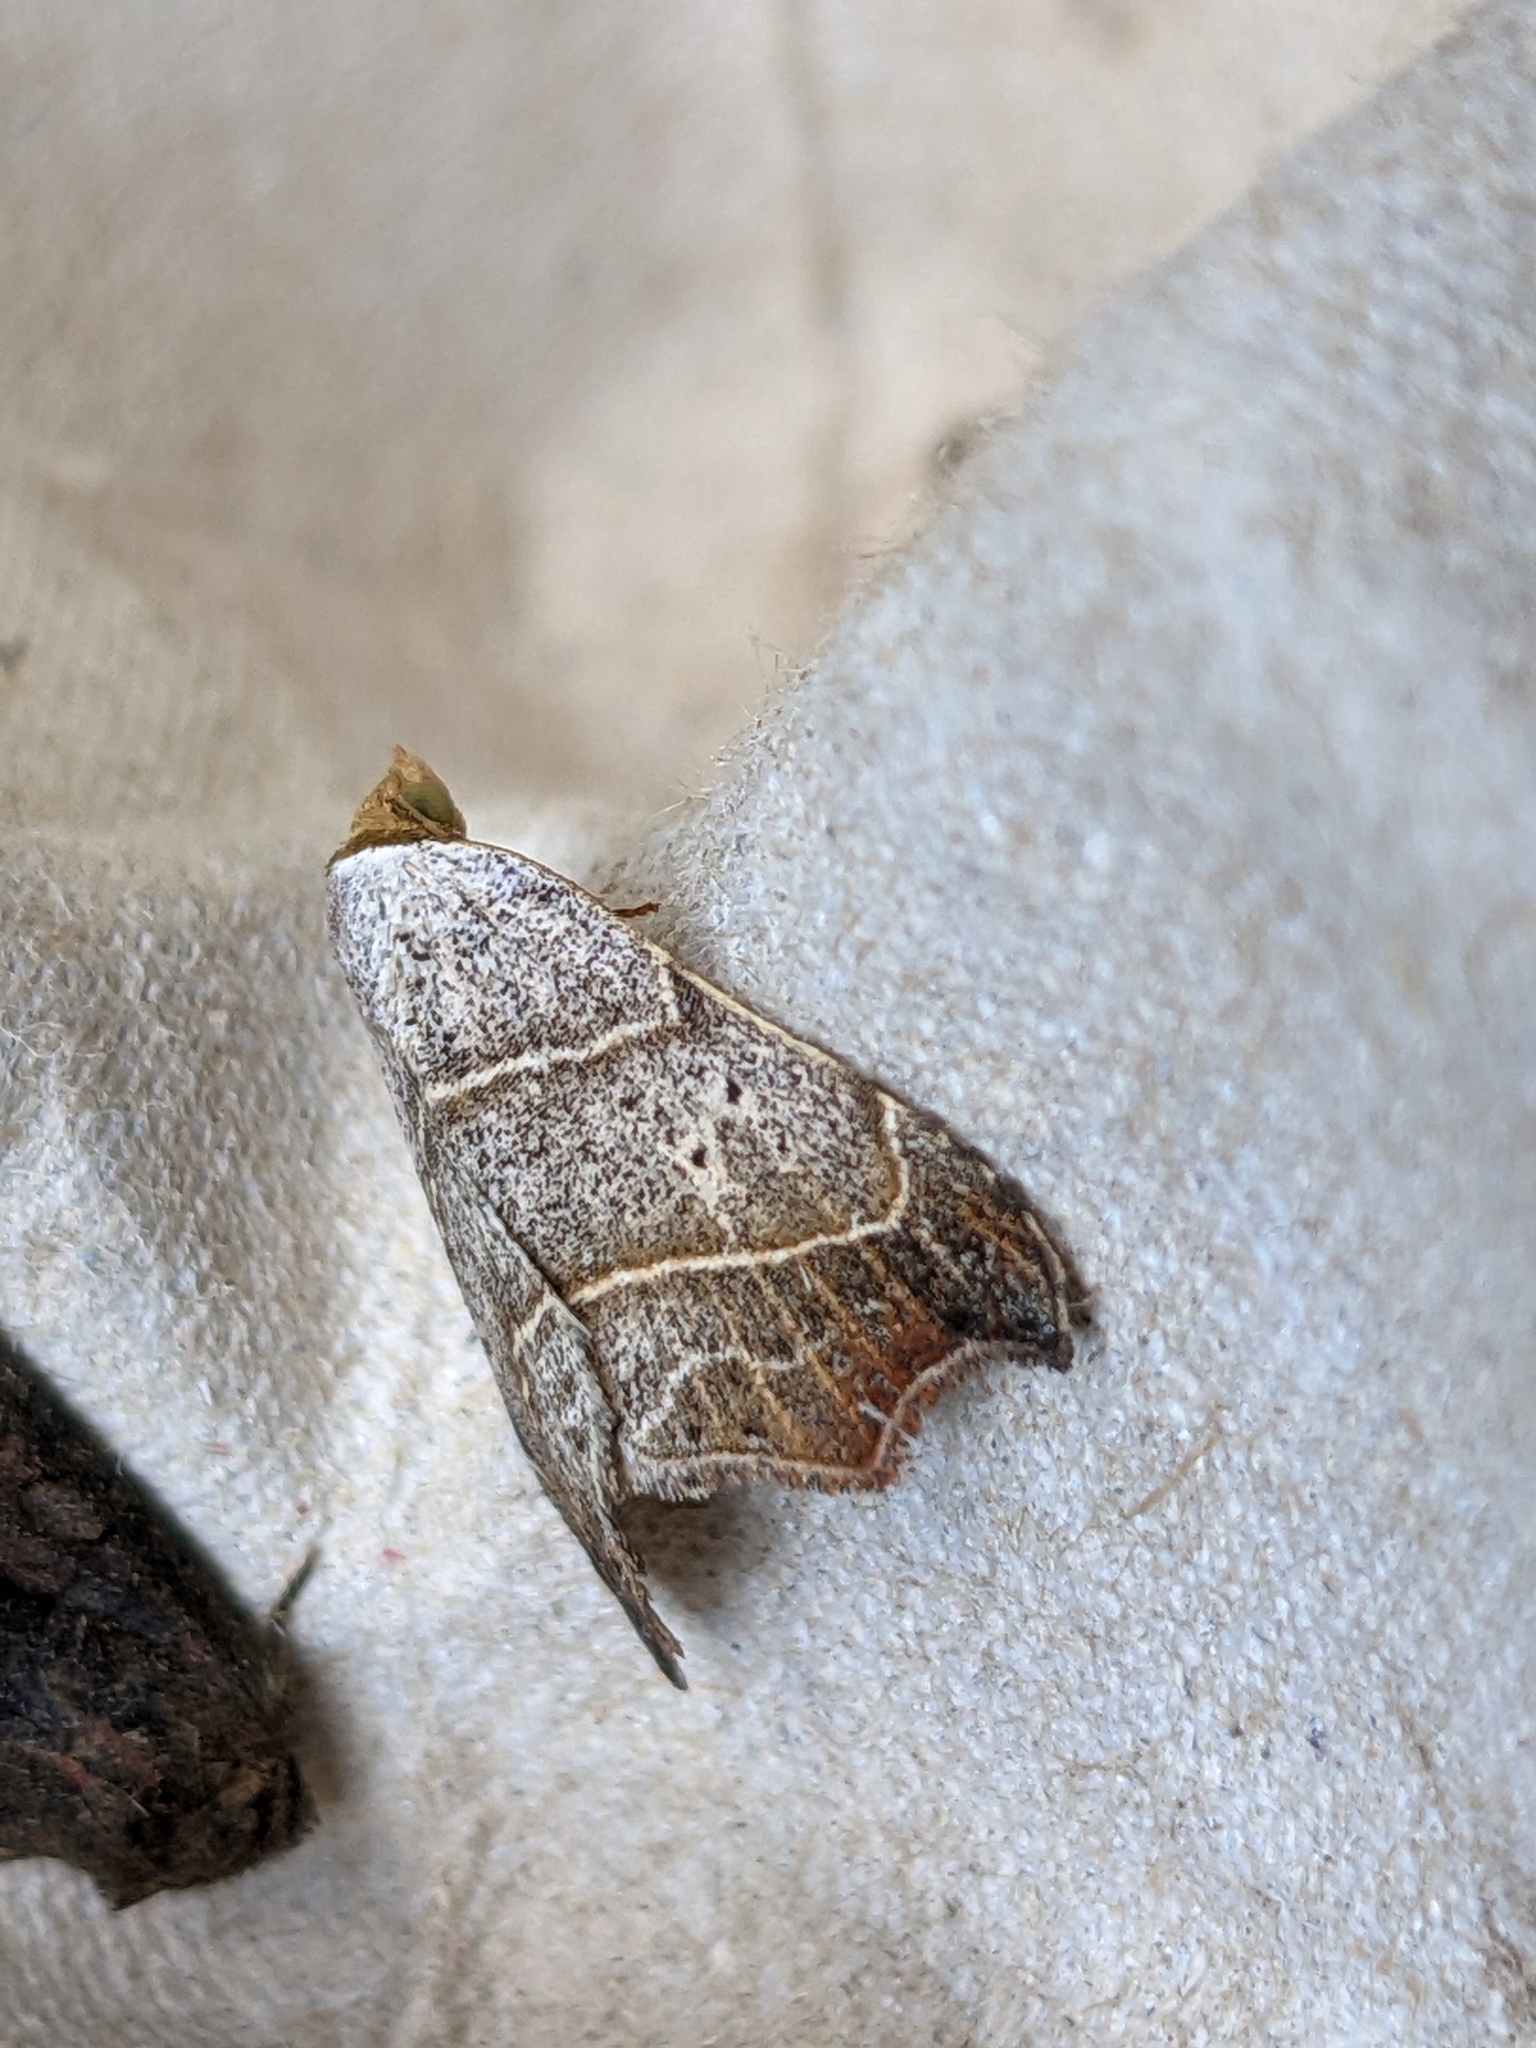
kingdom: Animalia
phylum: Arthropoda
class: Insecta
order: Lepidoptera
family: Erebidae
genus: Laspeyria
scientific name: Laspeyria flexula
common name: Beautiful hook-tip
